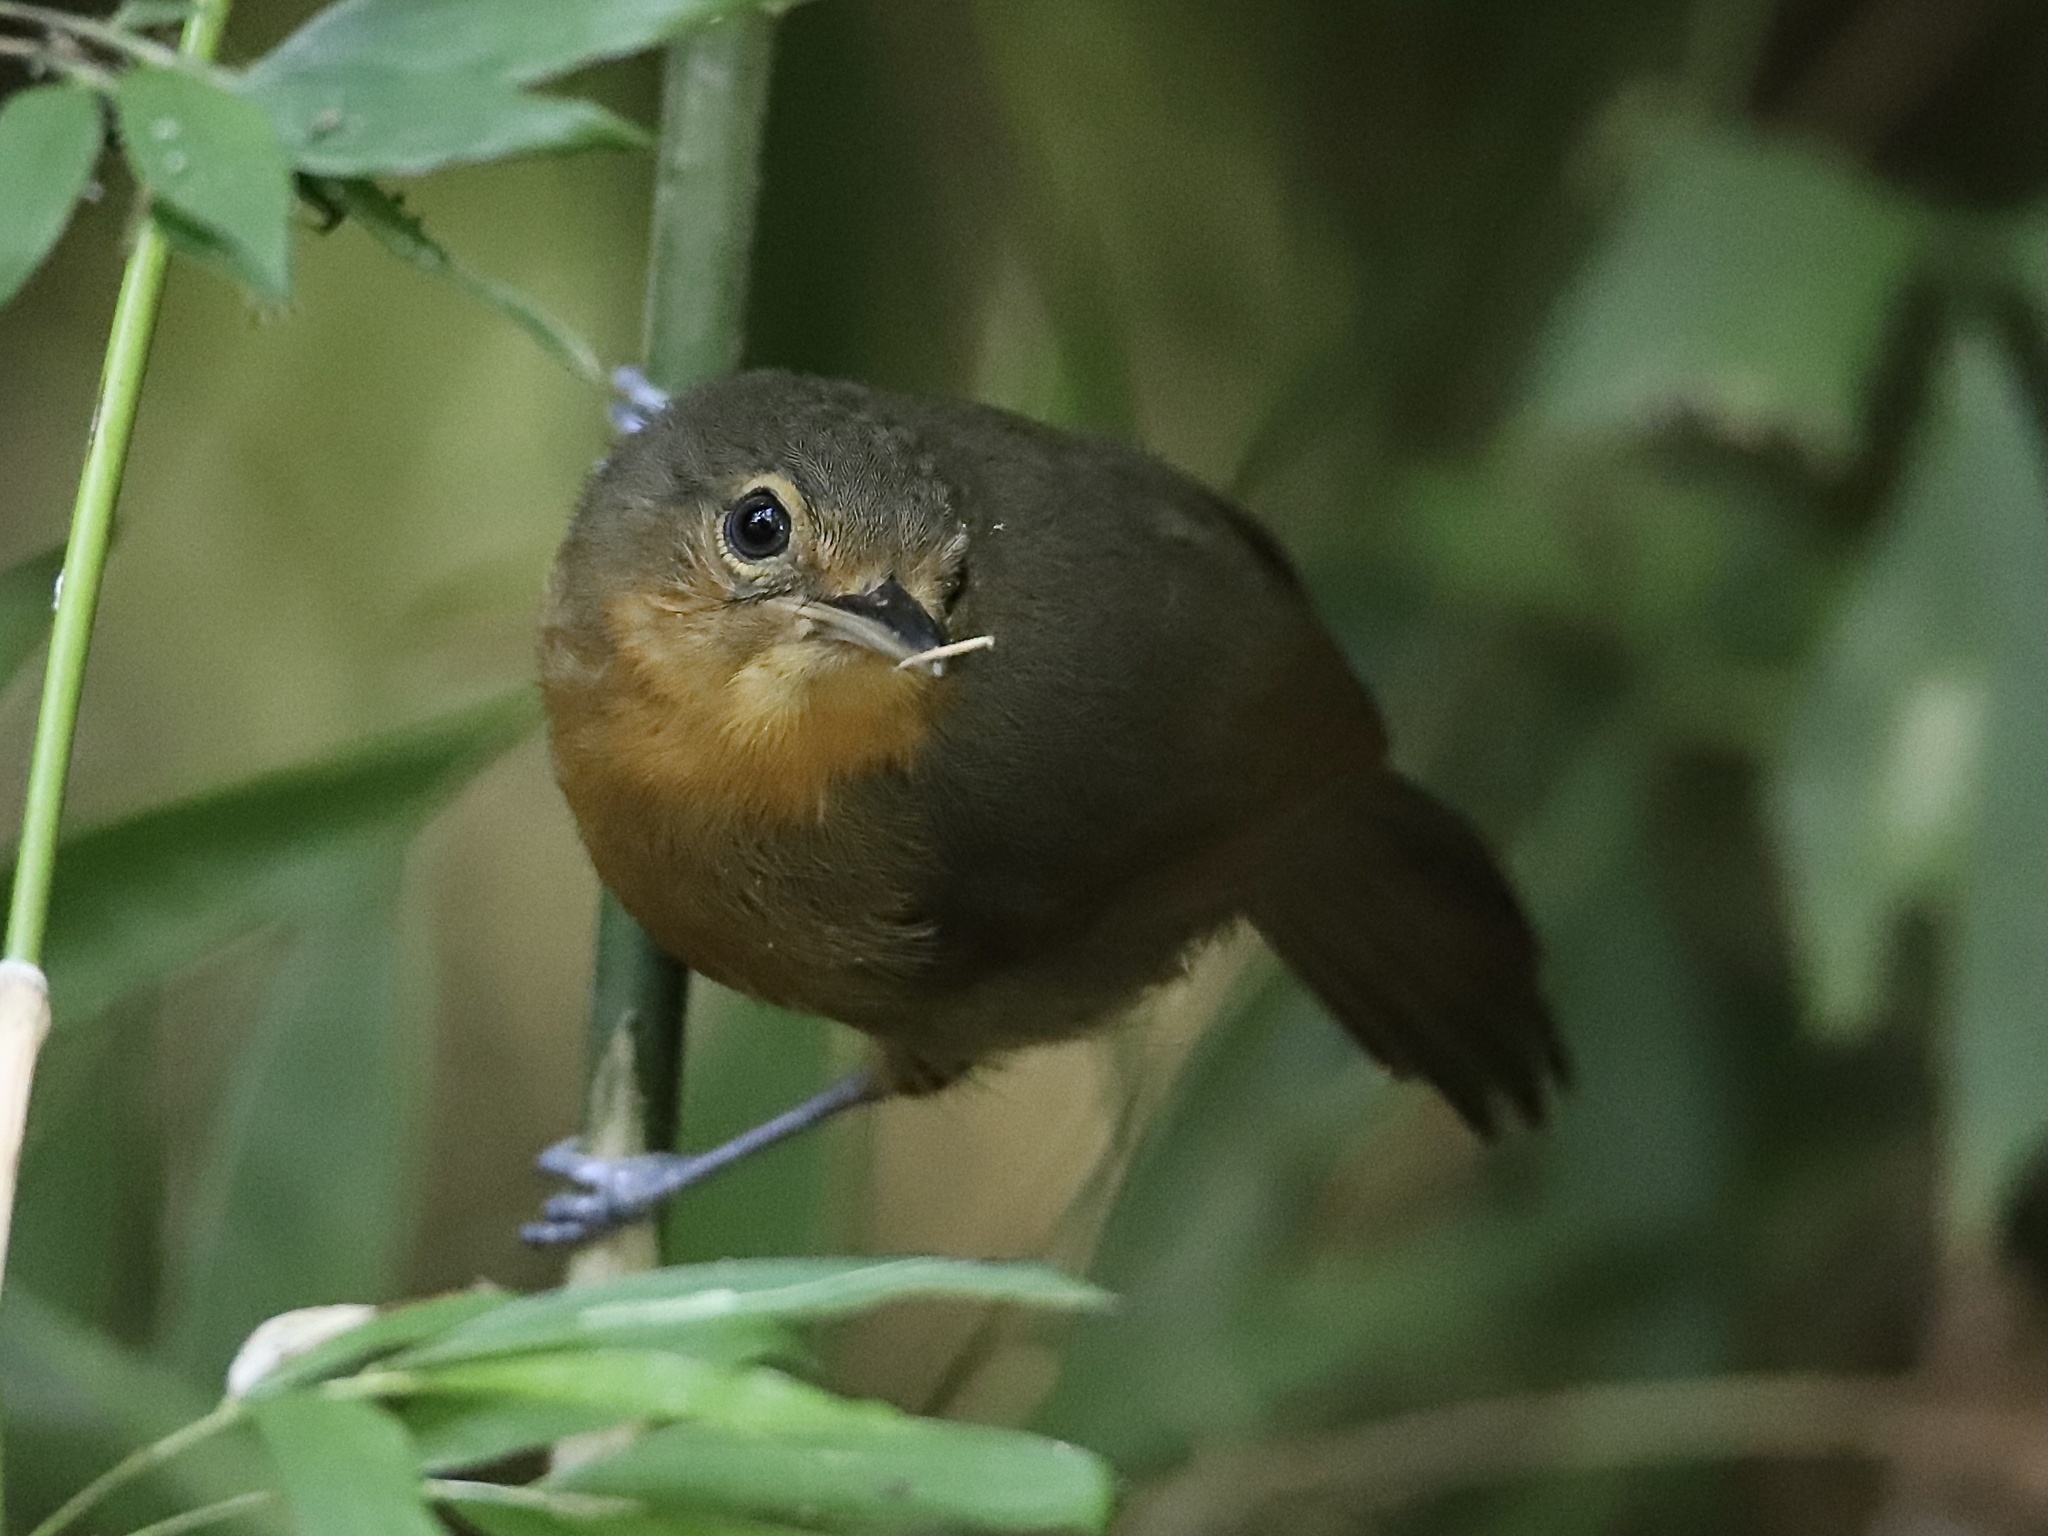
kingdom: Animalia
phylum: Chordata
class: Aves
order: Passeriformes
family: Thamnophilidae
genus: Cercomacra
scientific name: Cercomacra tyrannina
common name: Dusky antbird
